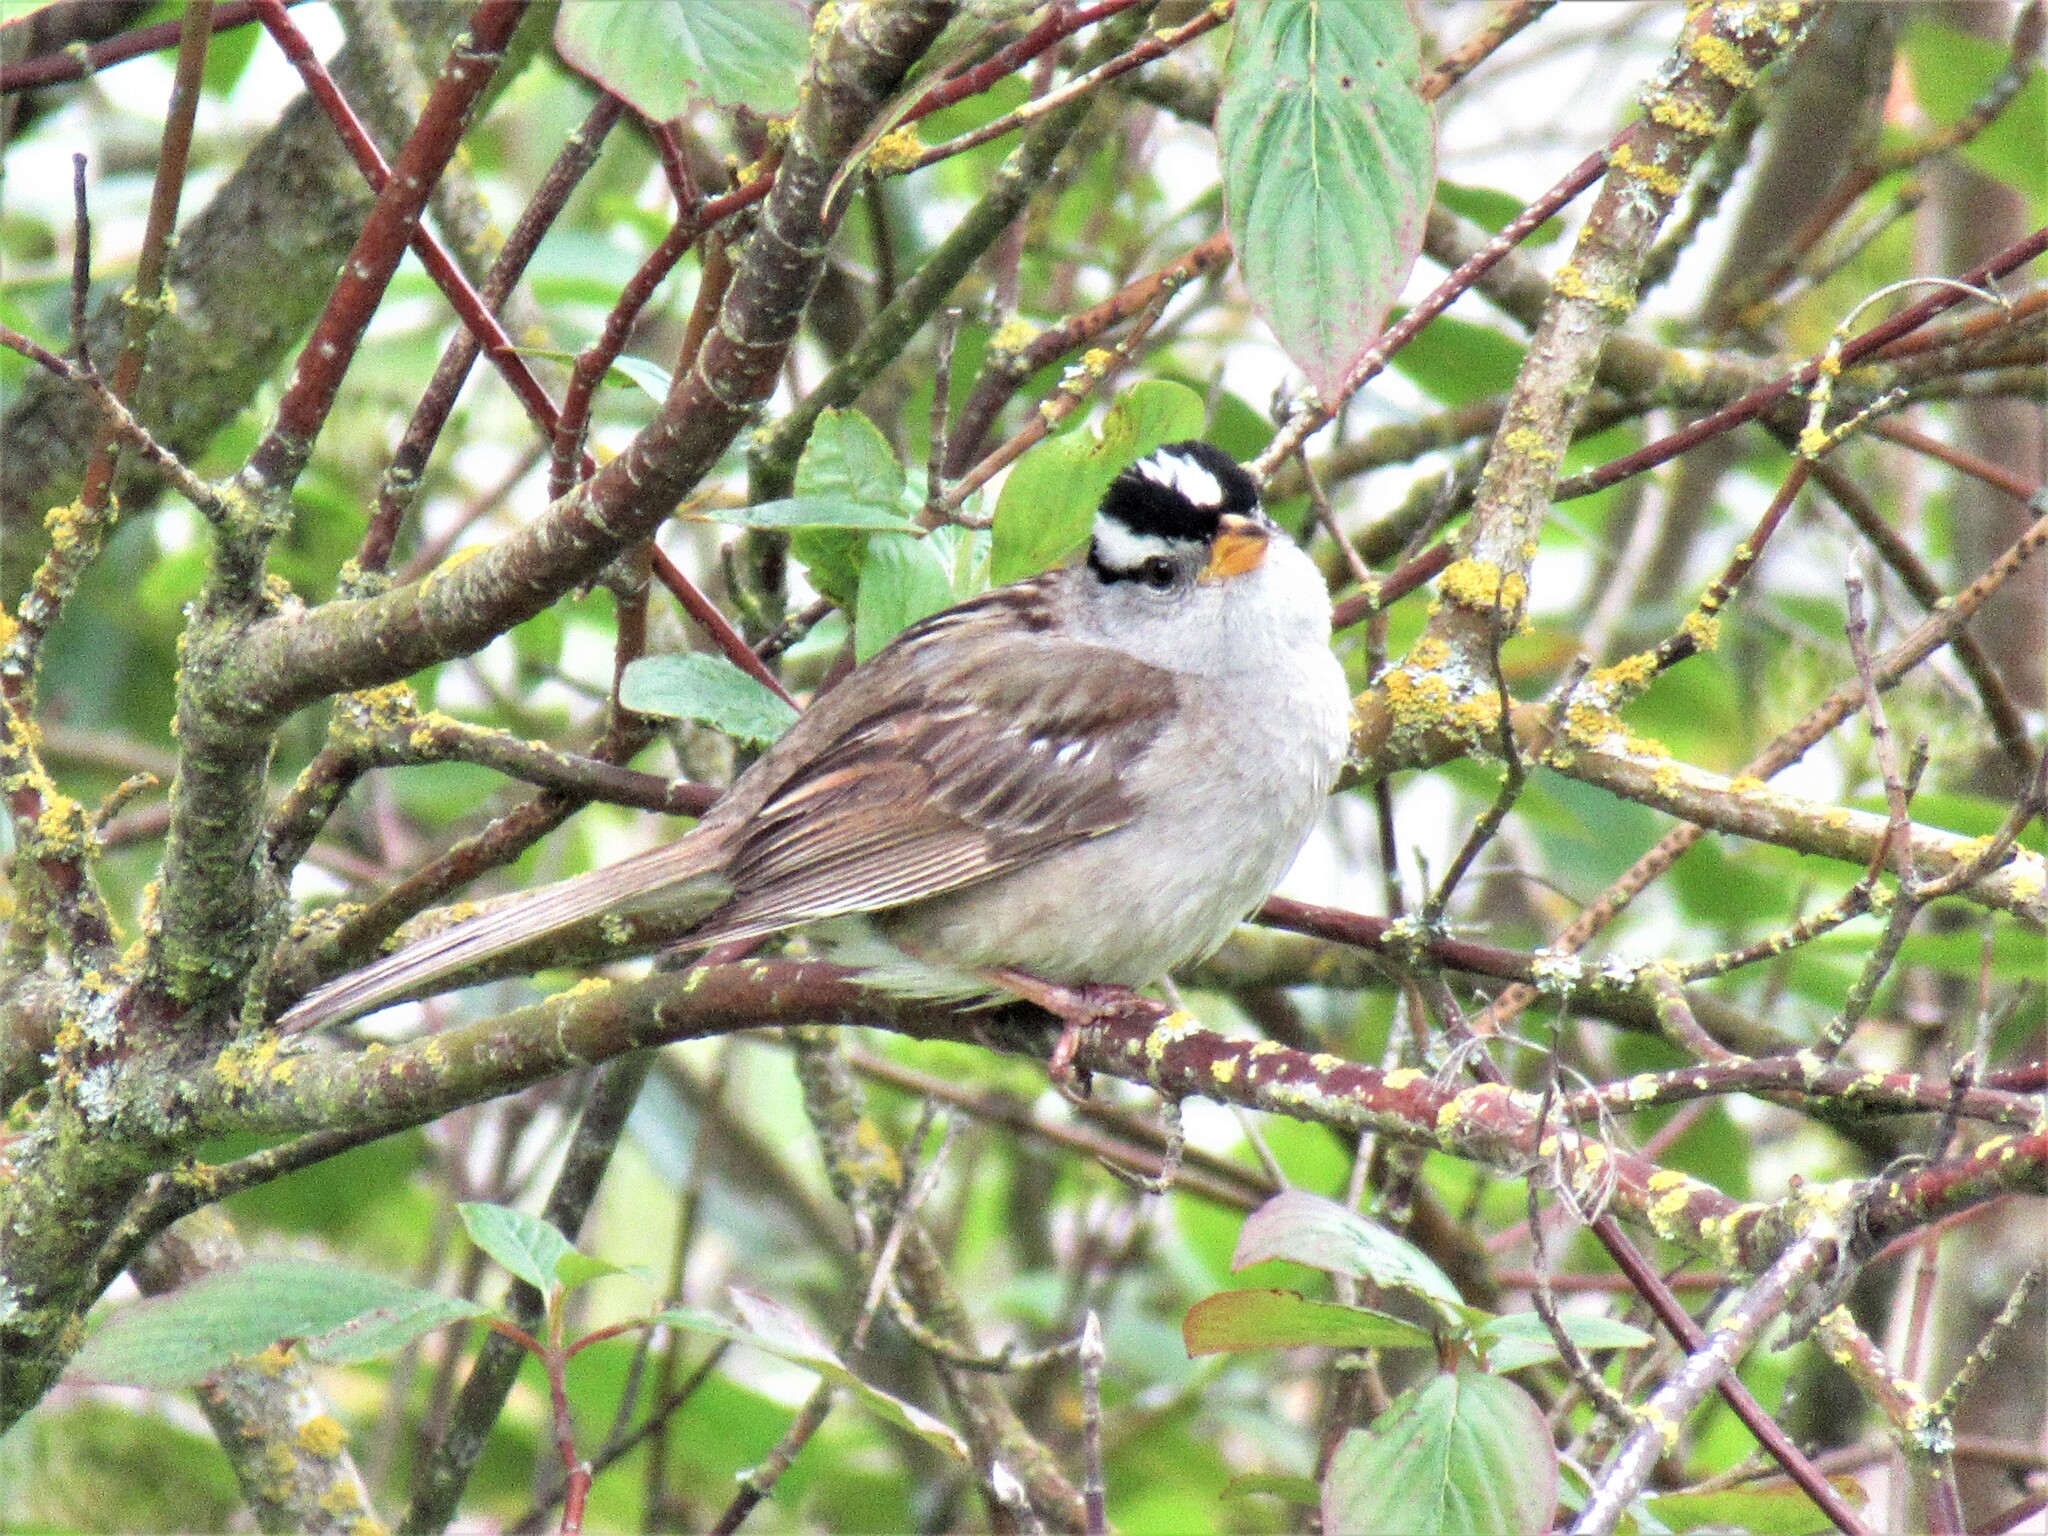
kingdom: Animalia
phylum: Chordata
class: Aves
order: Passeriformes
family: Passerellidae
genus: Zonotrichia
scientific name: Zonotrichia leucophrys
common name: White-crowned sparrow
